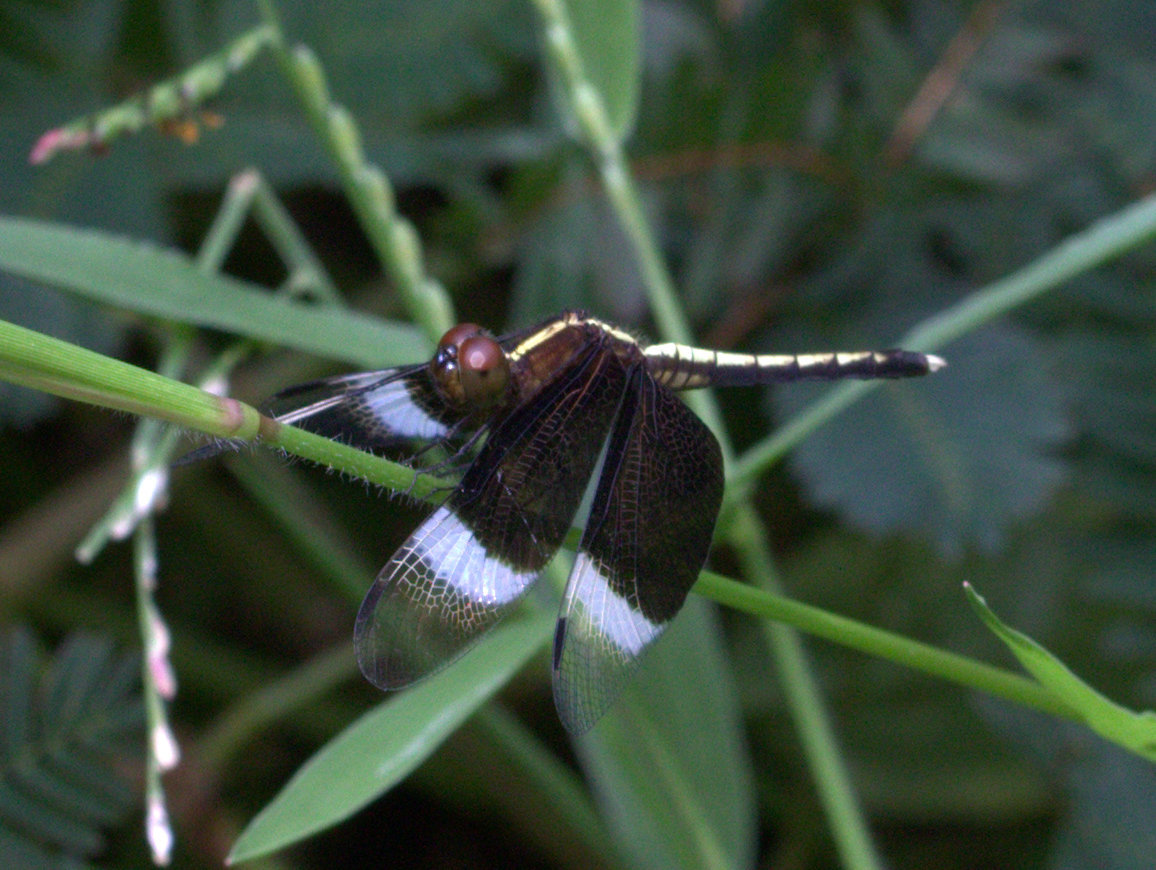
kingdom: Animalia
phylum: Arthropoda
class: Insecta
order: Odonata
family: Libellulidae
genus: Neurothemis
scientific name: Neurothemis tullia
